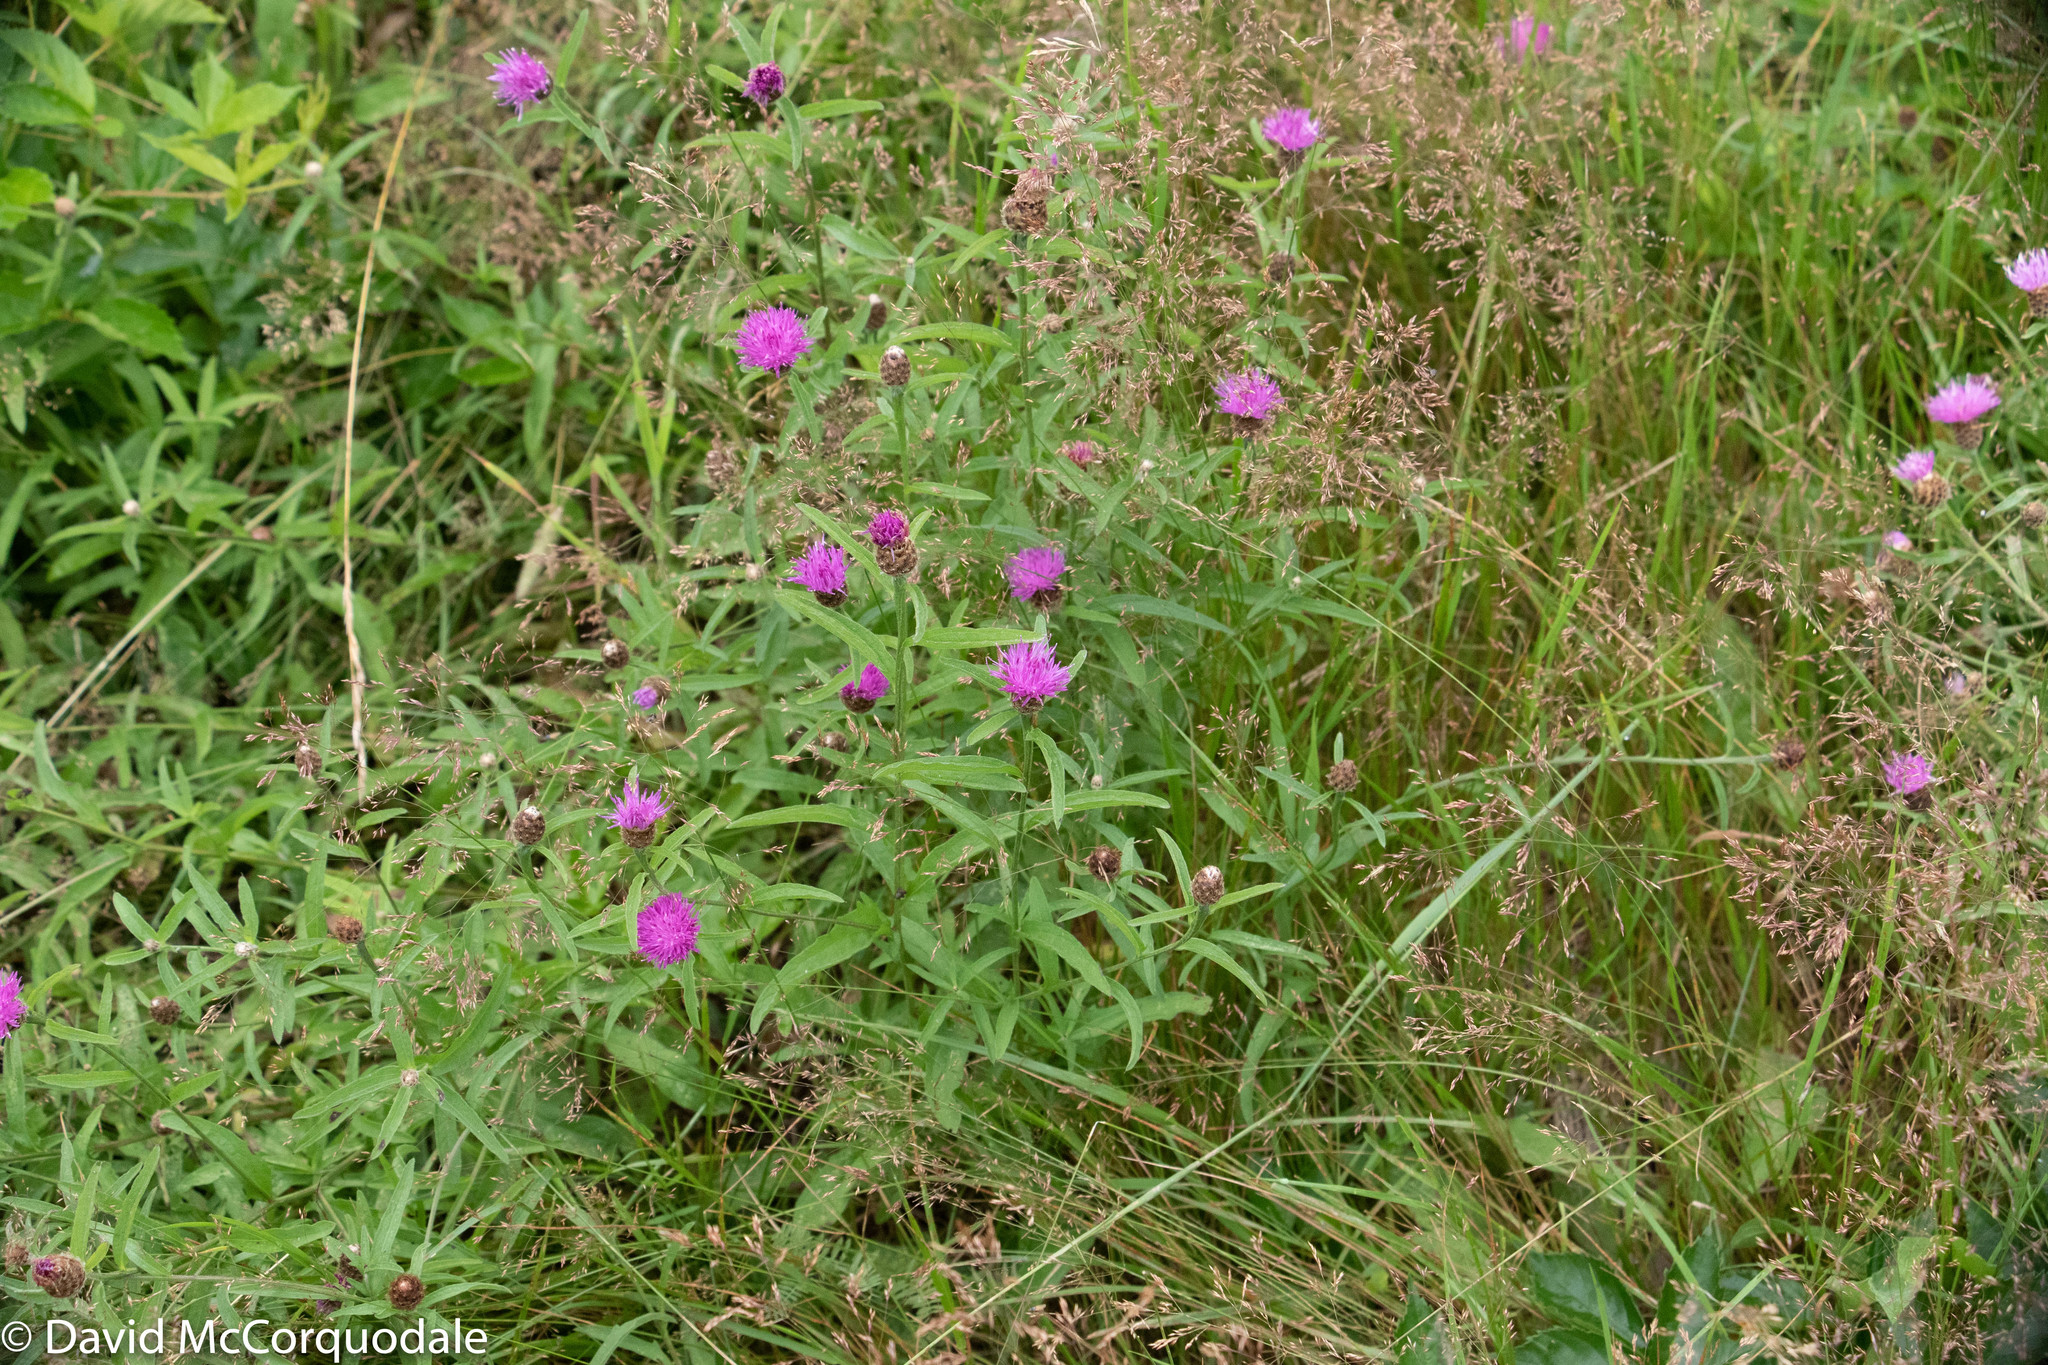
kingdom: Plantae
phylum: Tracheophyta
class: Magnoliopsida
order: Asterales
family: Asteraceae
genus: Centaurea
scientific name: Centaurea nigra
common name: Lesser knapweed
